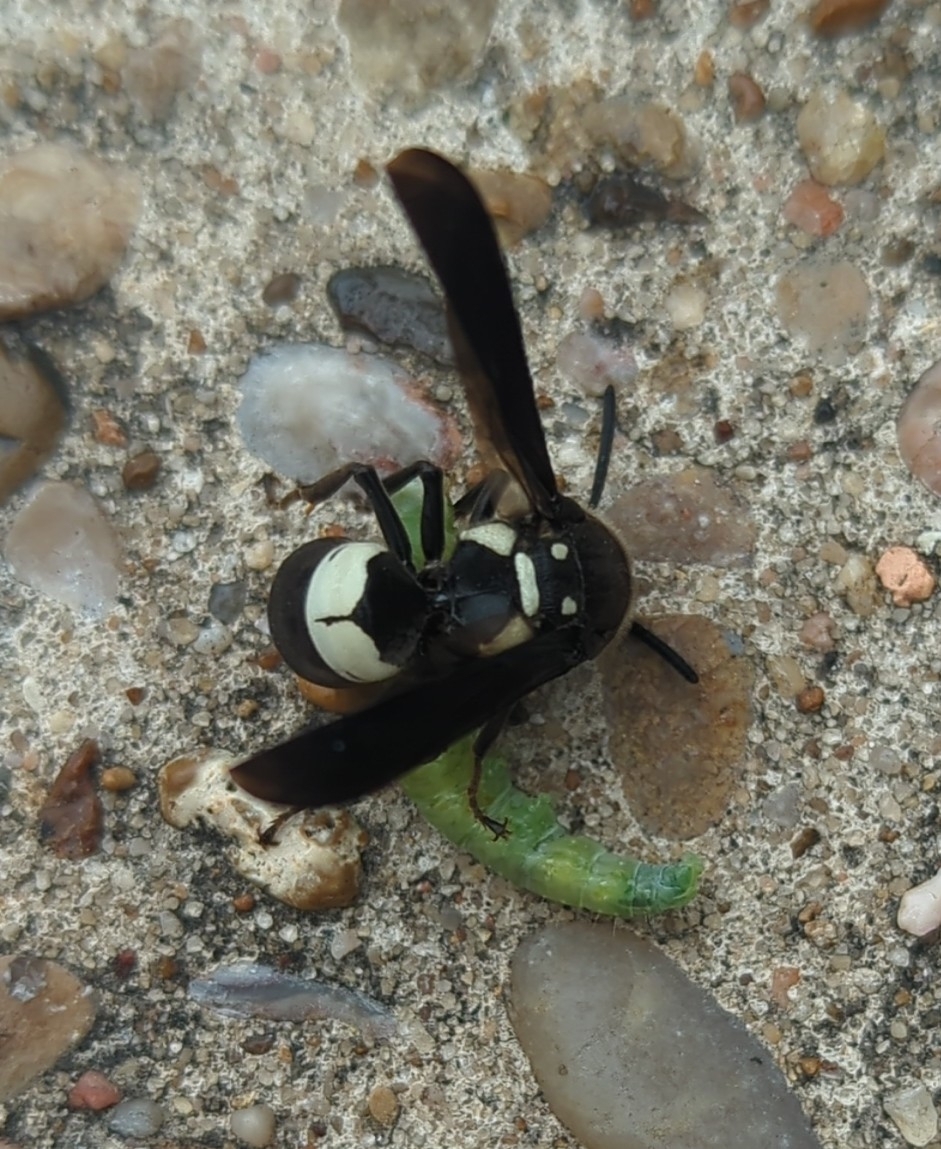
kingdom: Animalia
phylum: Arthropoda
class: Insecta
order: Hymenoptera
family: Eumenidae
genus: Euodynerus
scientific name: Euodynerus bidens
